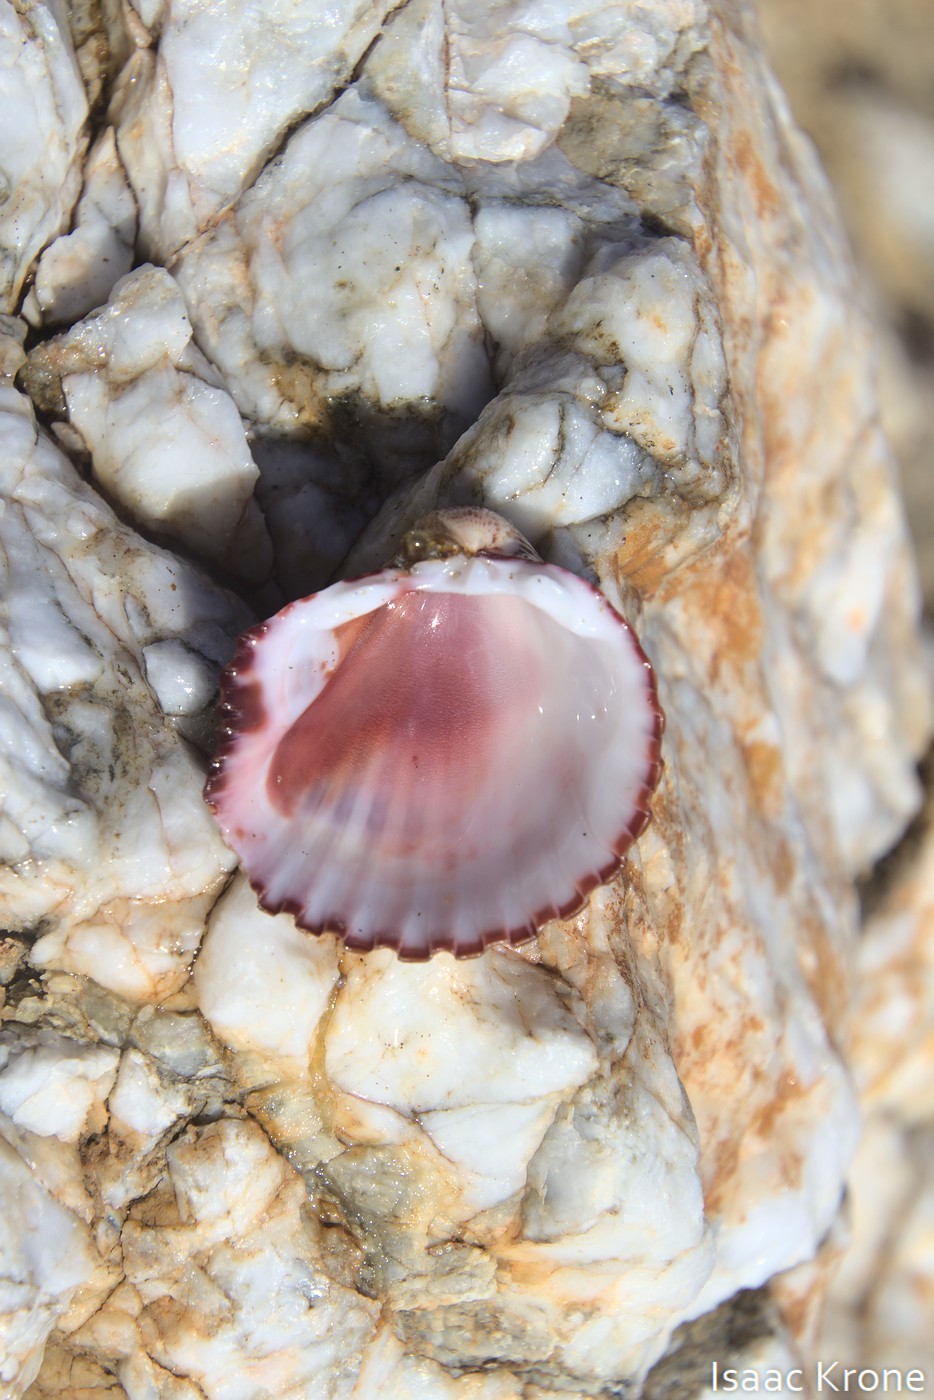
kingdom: Animalia
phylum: Mollusca
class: Bivalvia
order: Cardiida
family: Cardiidae
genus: Americardia
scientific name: Americardia biangulata
